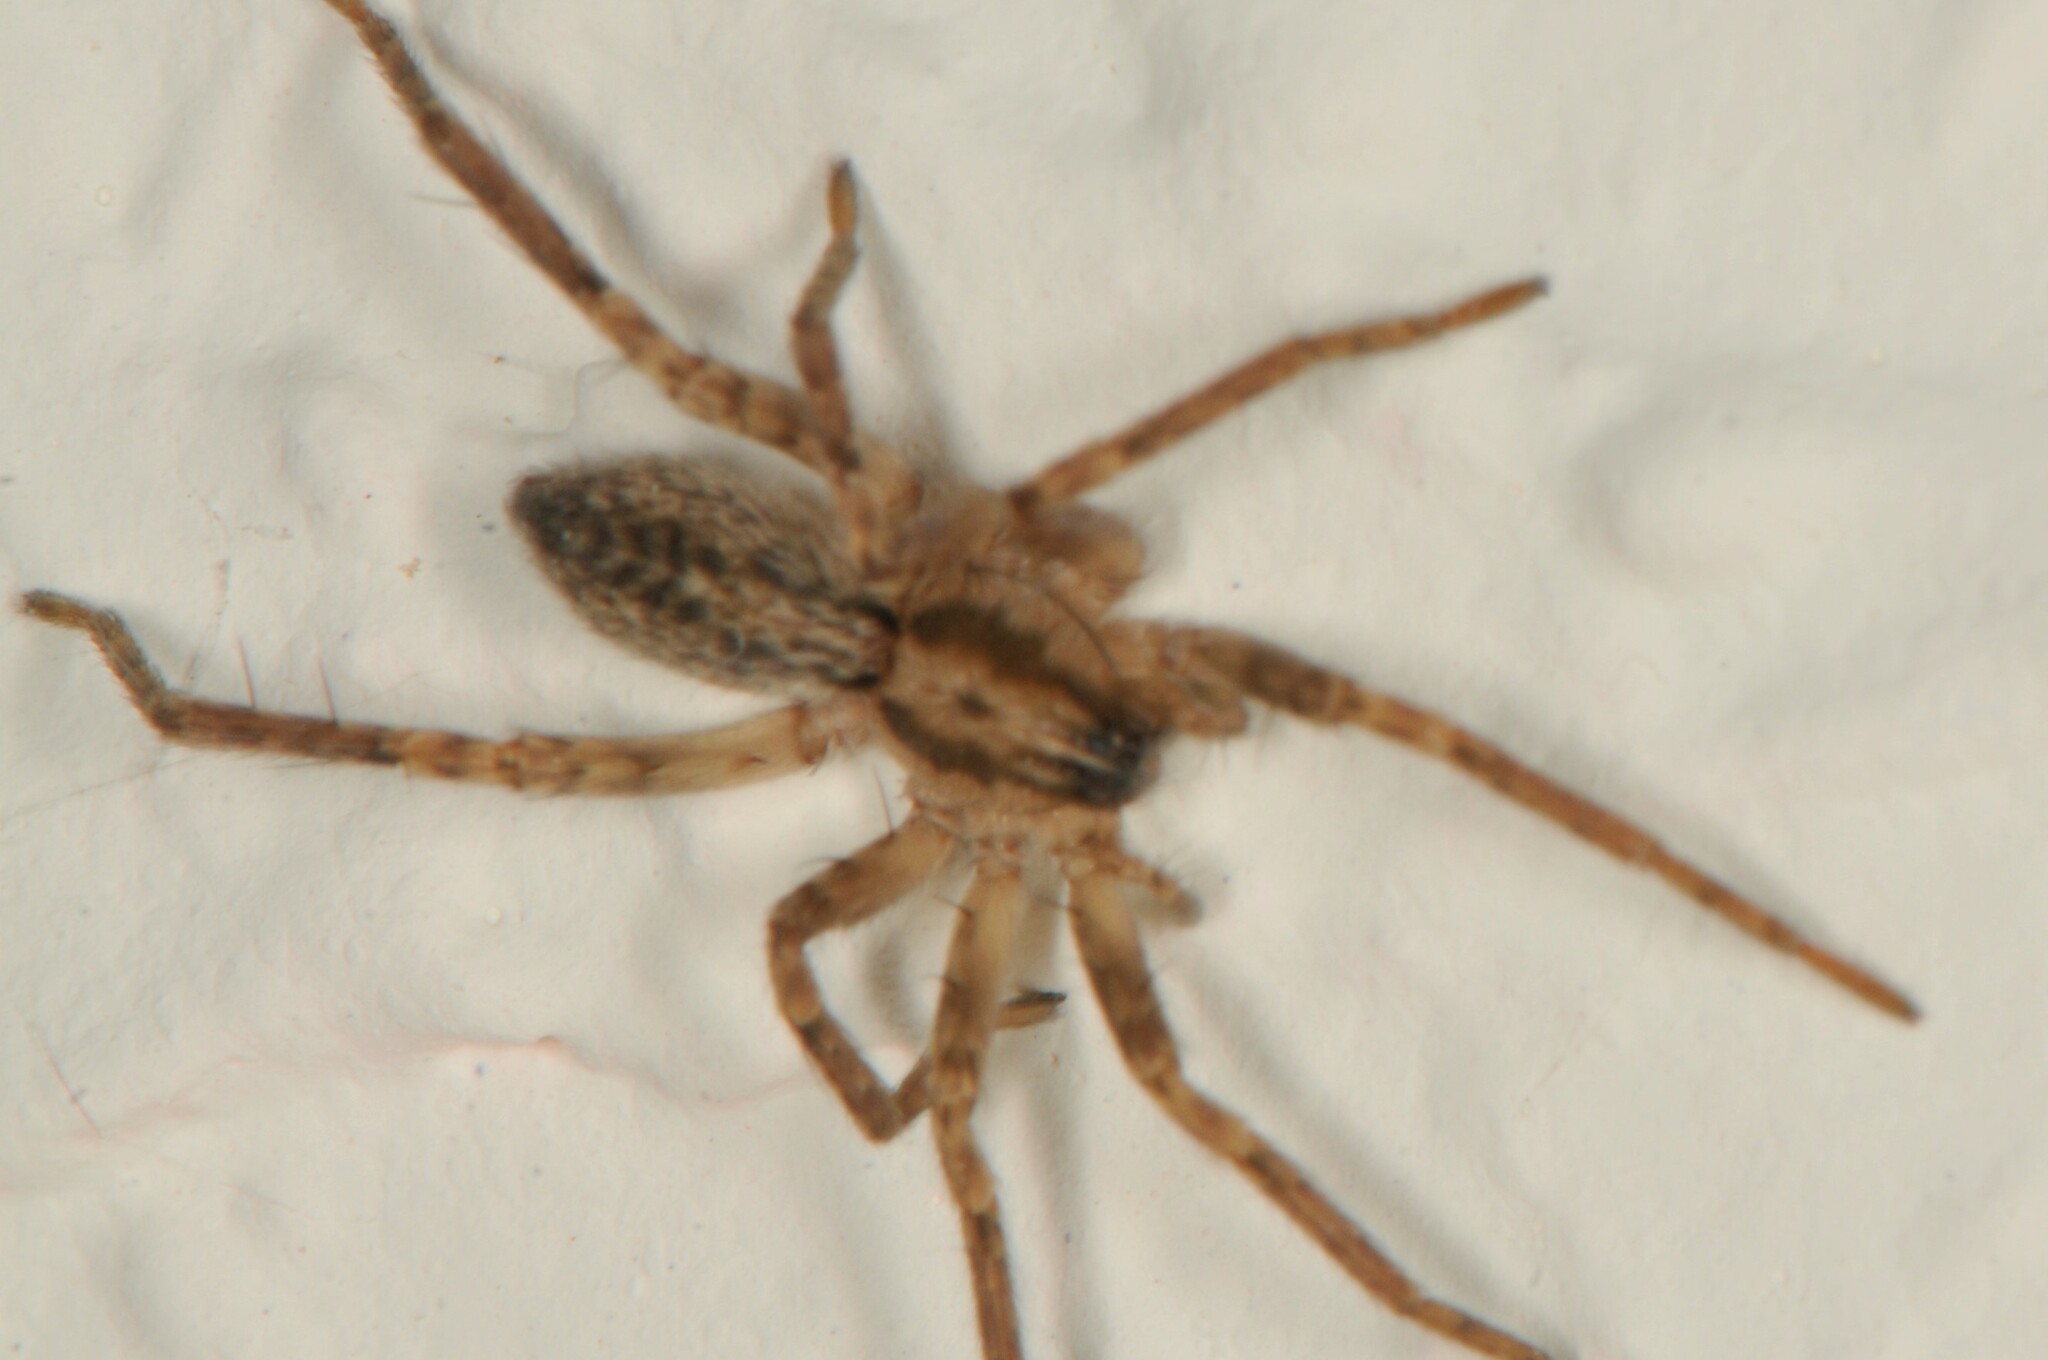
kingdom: Animalia
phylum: Arthropoda
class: Arachnida
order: Araneae
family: Anyphaenidae
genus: Anyphaena
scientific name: Anyphaena
